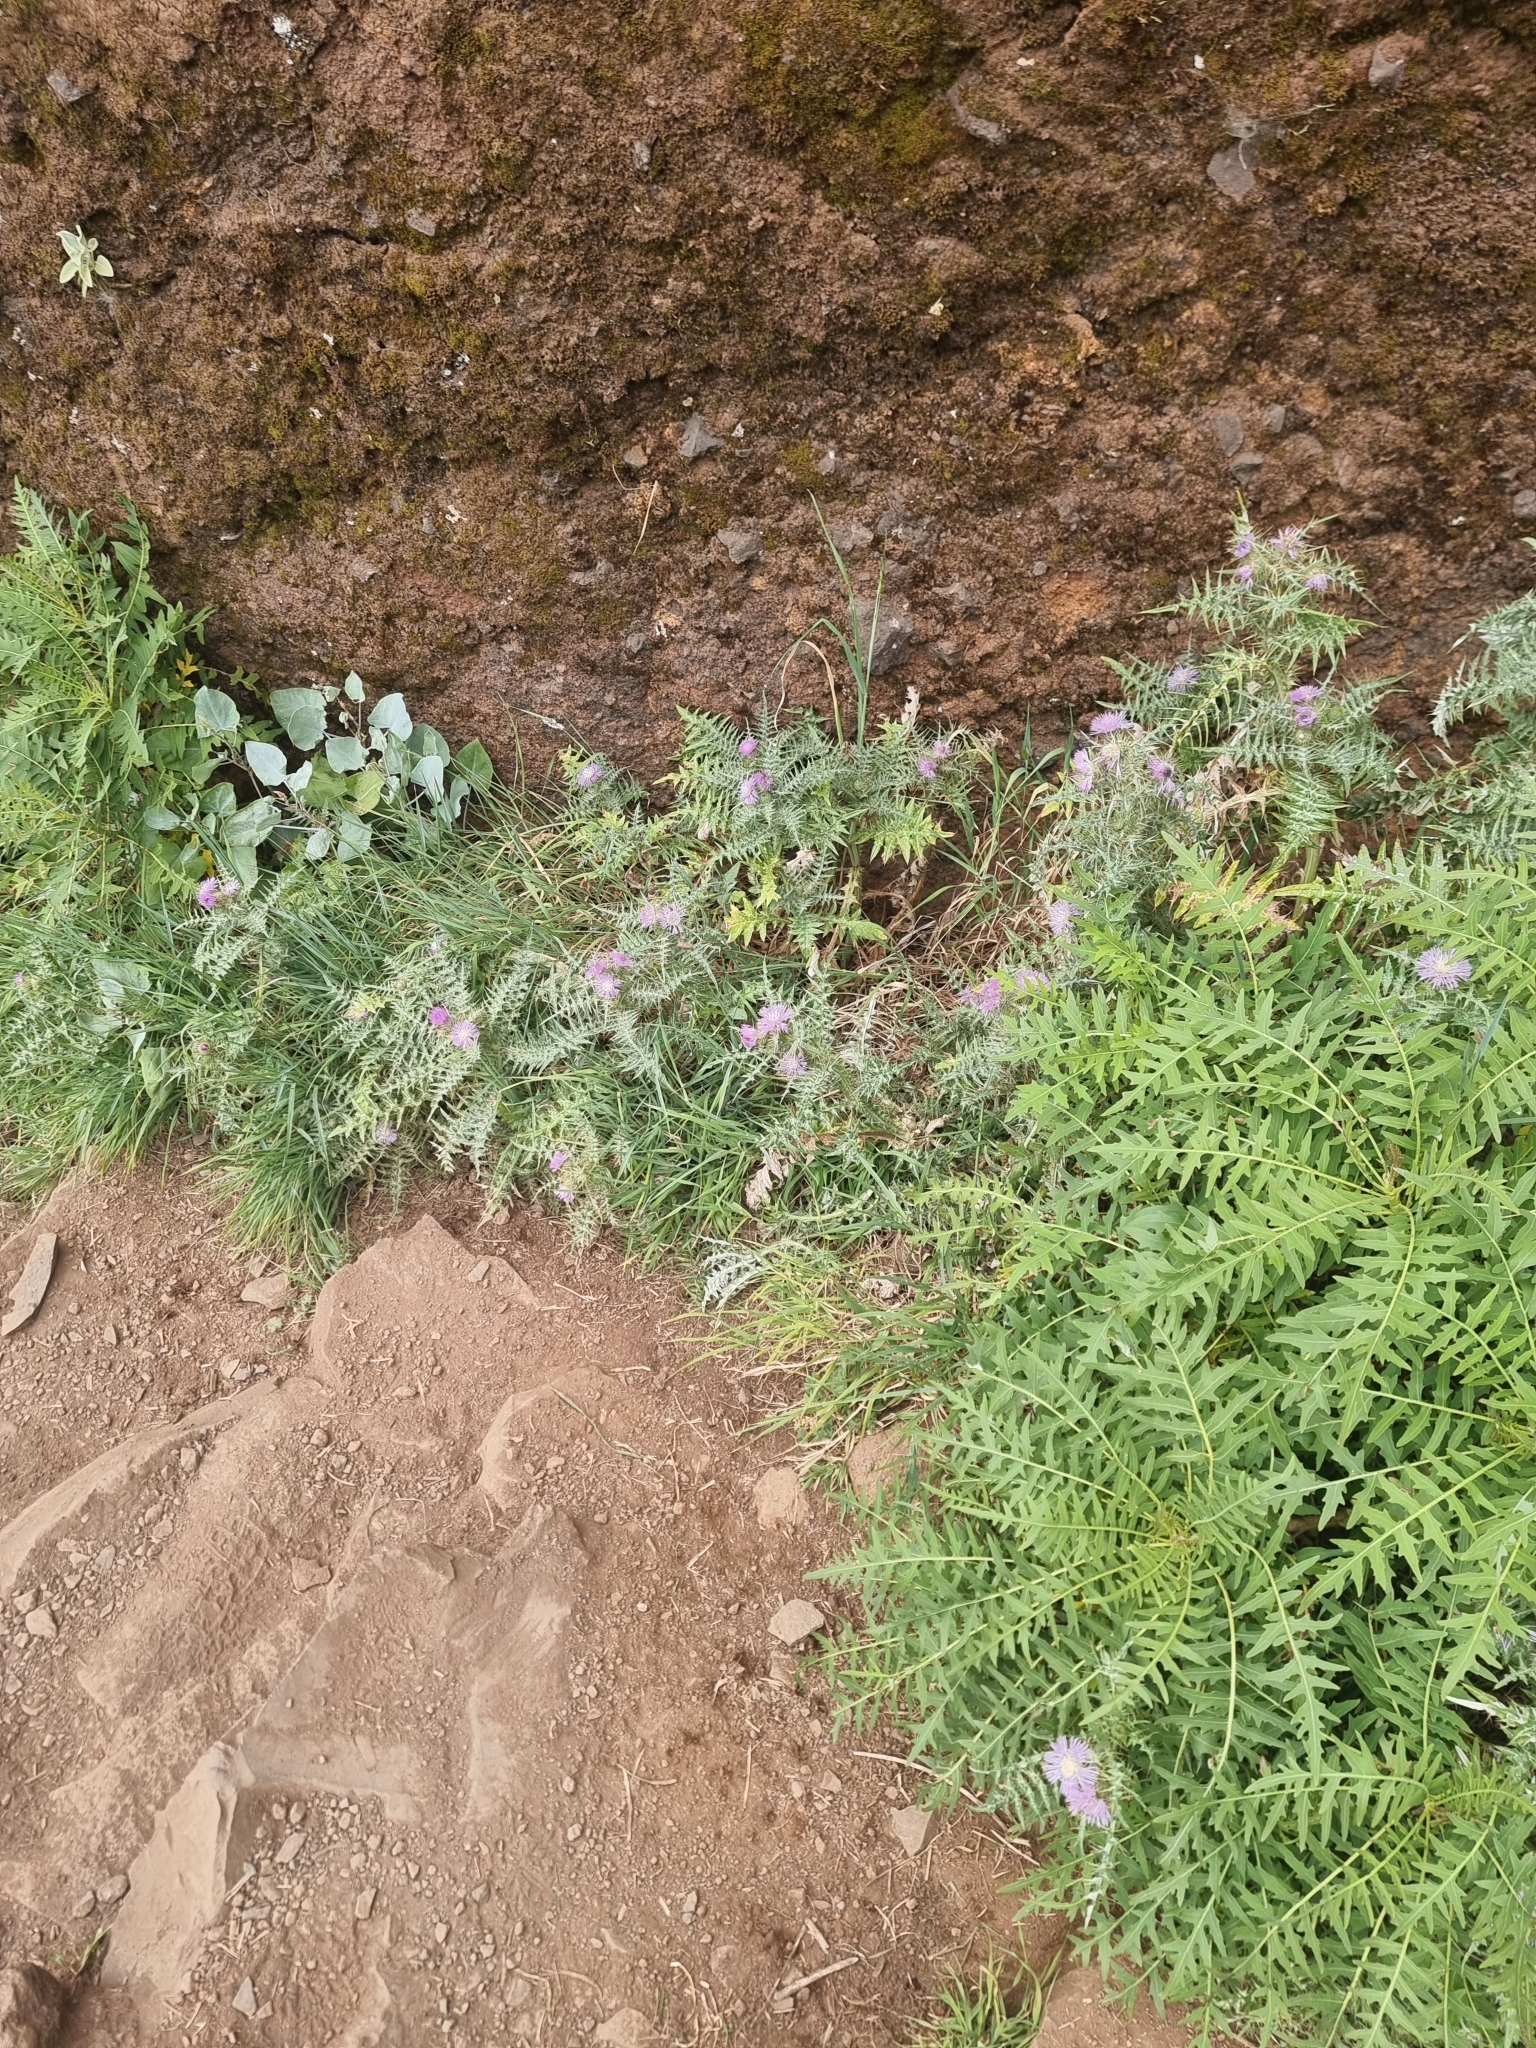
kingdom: Plantae
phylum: Tracheophyta
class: Magnoliopsida
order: Asterales
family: Asteraceae
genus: Galactites
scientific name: Galactites tomentosa
